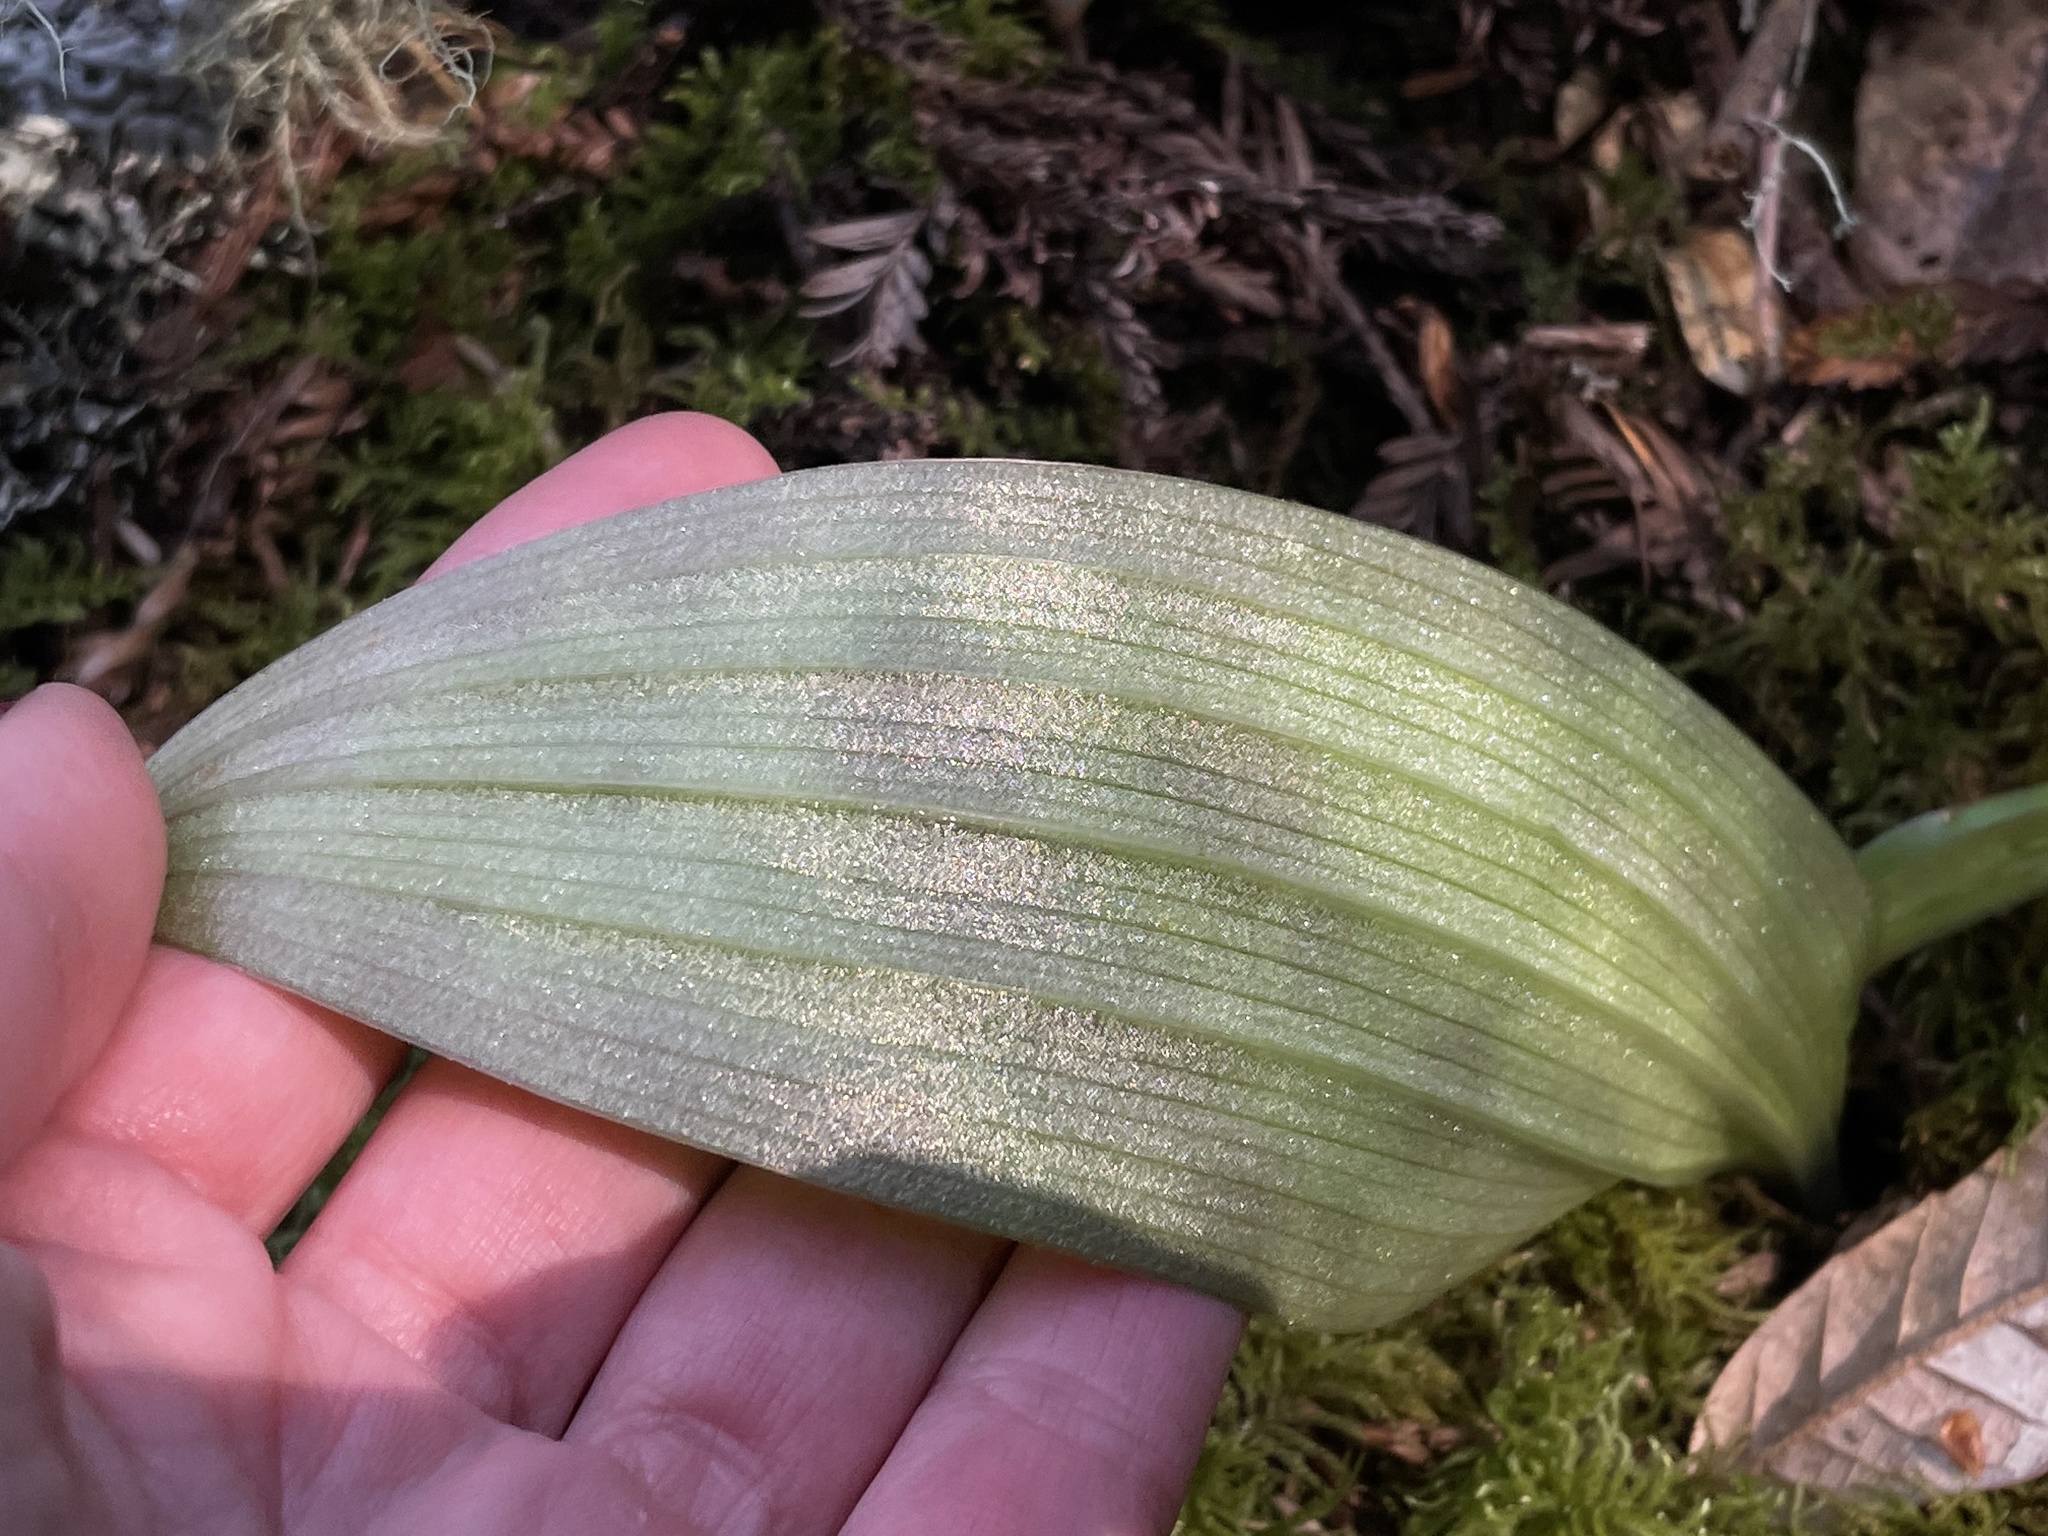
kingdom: Plantae
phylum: Tracheophyta
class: Liliopsida
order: Liliales
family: Liliaceae
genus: Scoliopus
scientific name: Scoliopus bigelovii
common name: Foetid adder's-tongue
